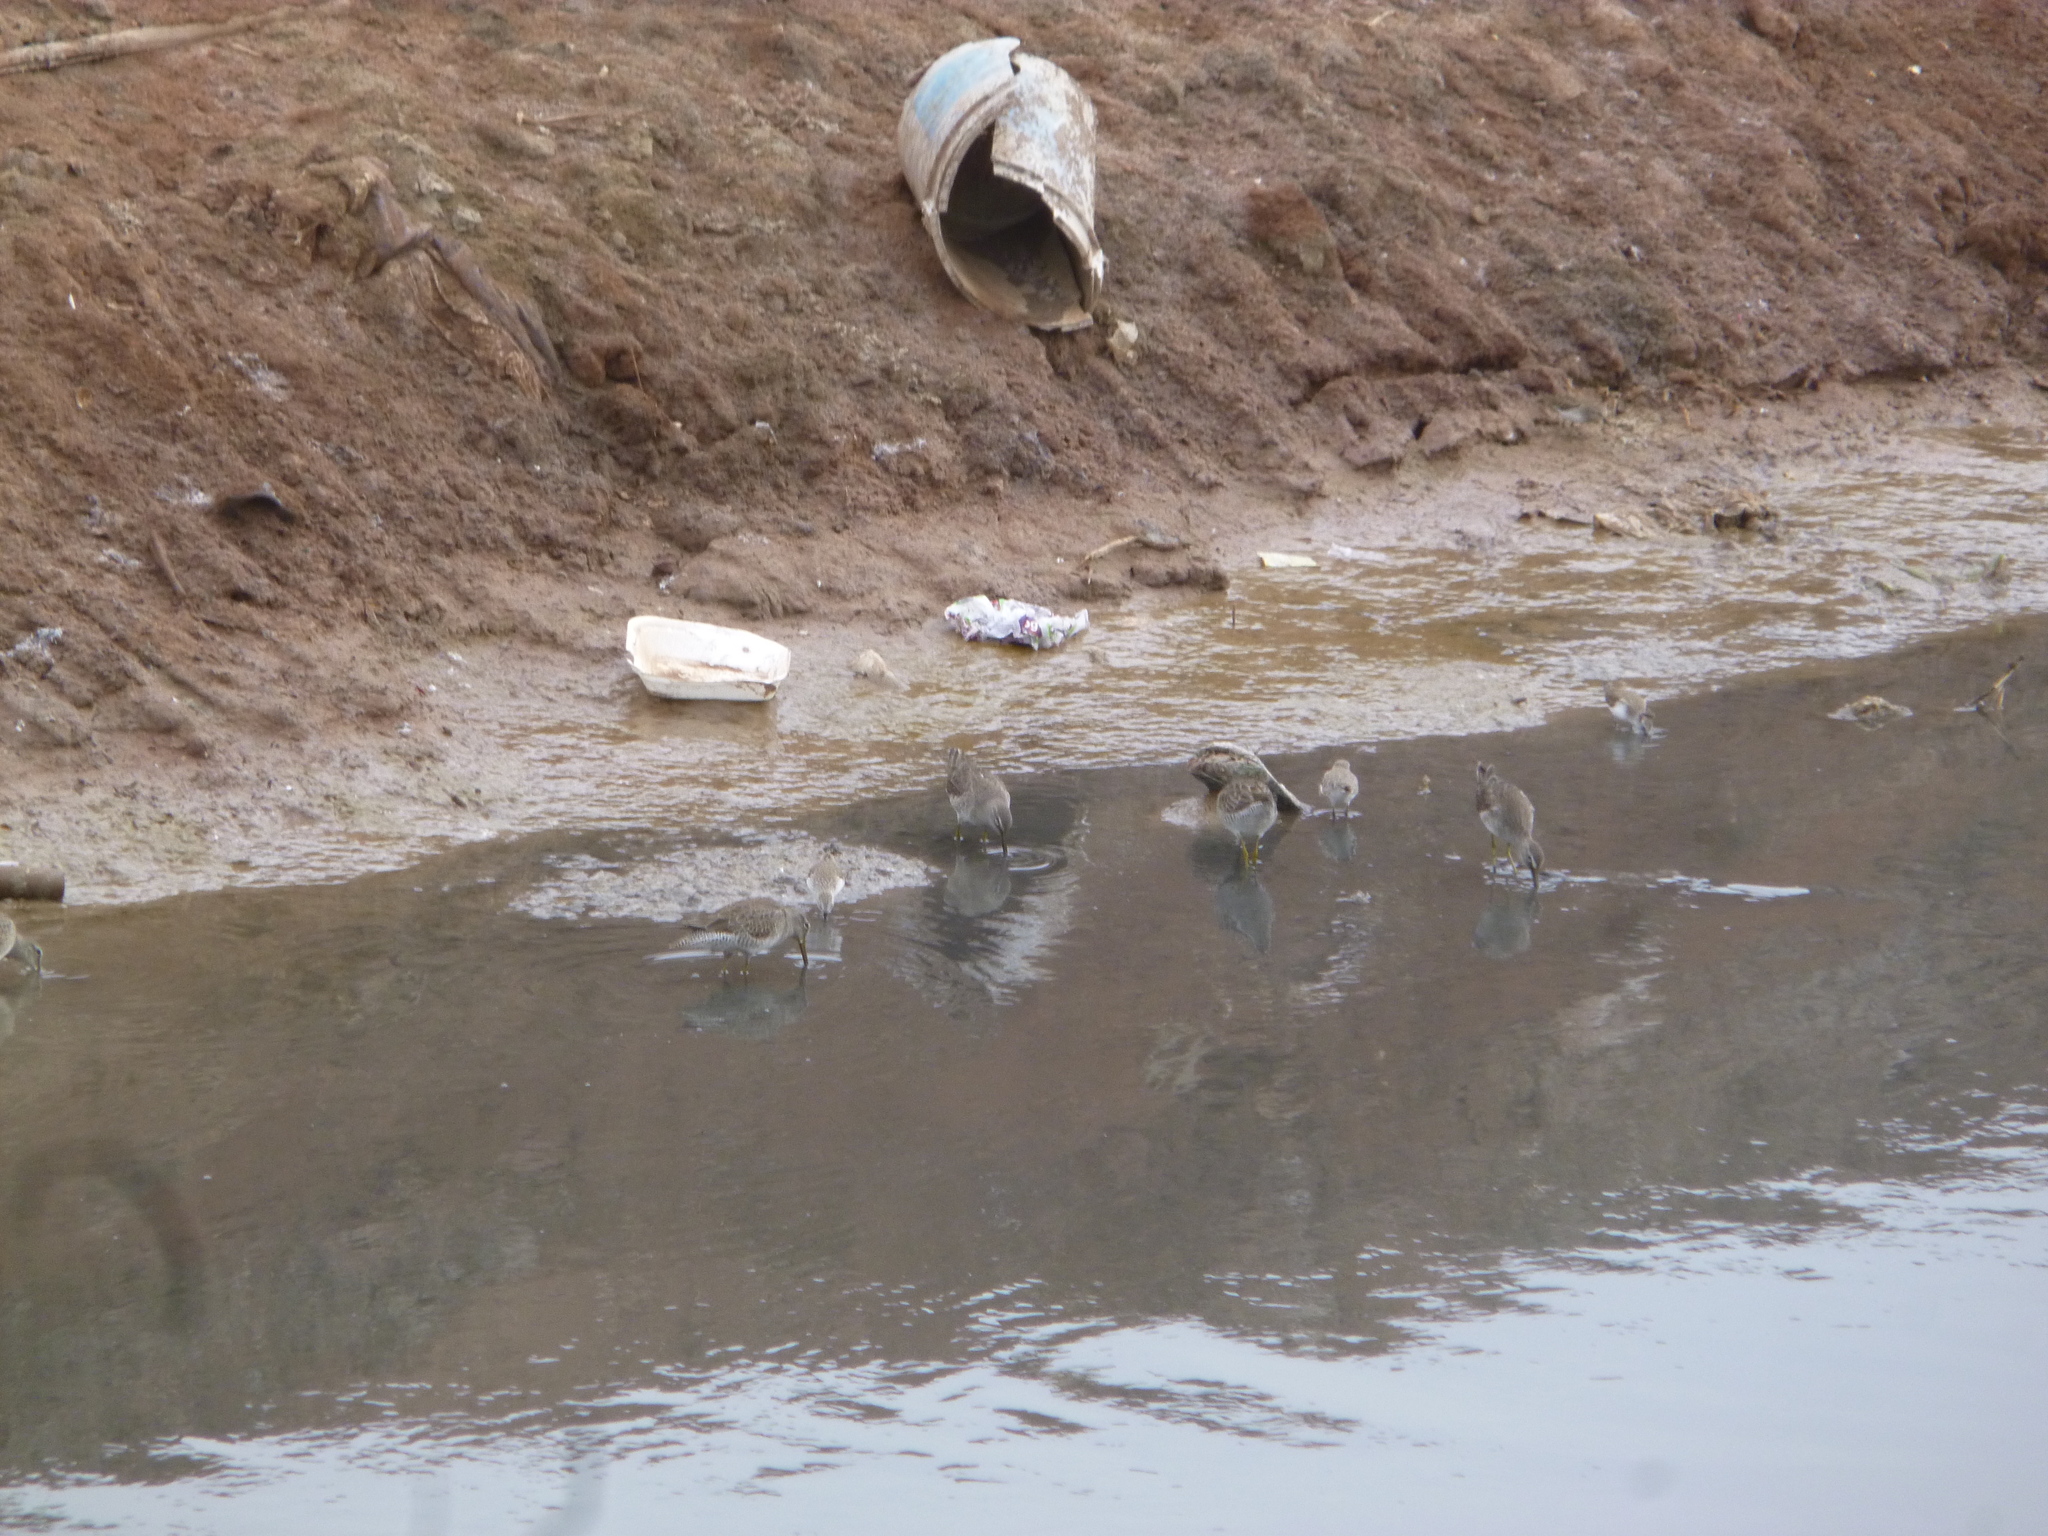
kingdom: Animalia
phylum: Chordata
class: Aves
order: Charadriiformes
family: Scolopacidae
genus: Limnodromus
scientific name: Limnodromus
